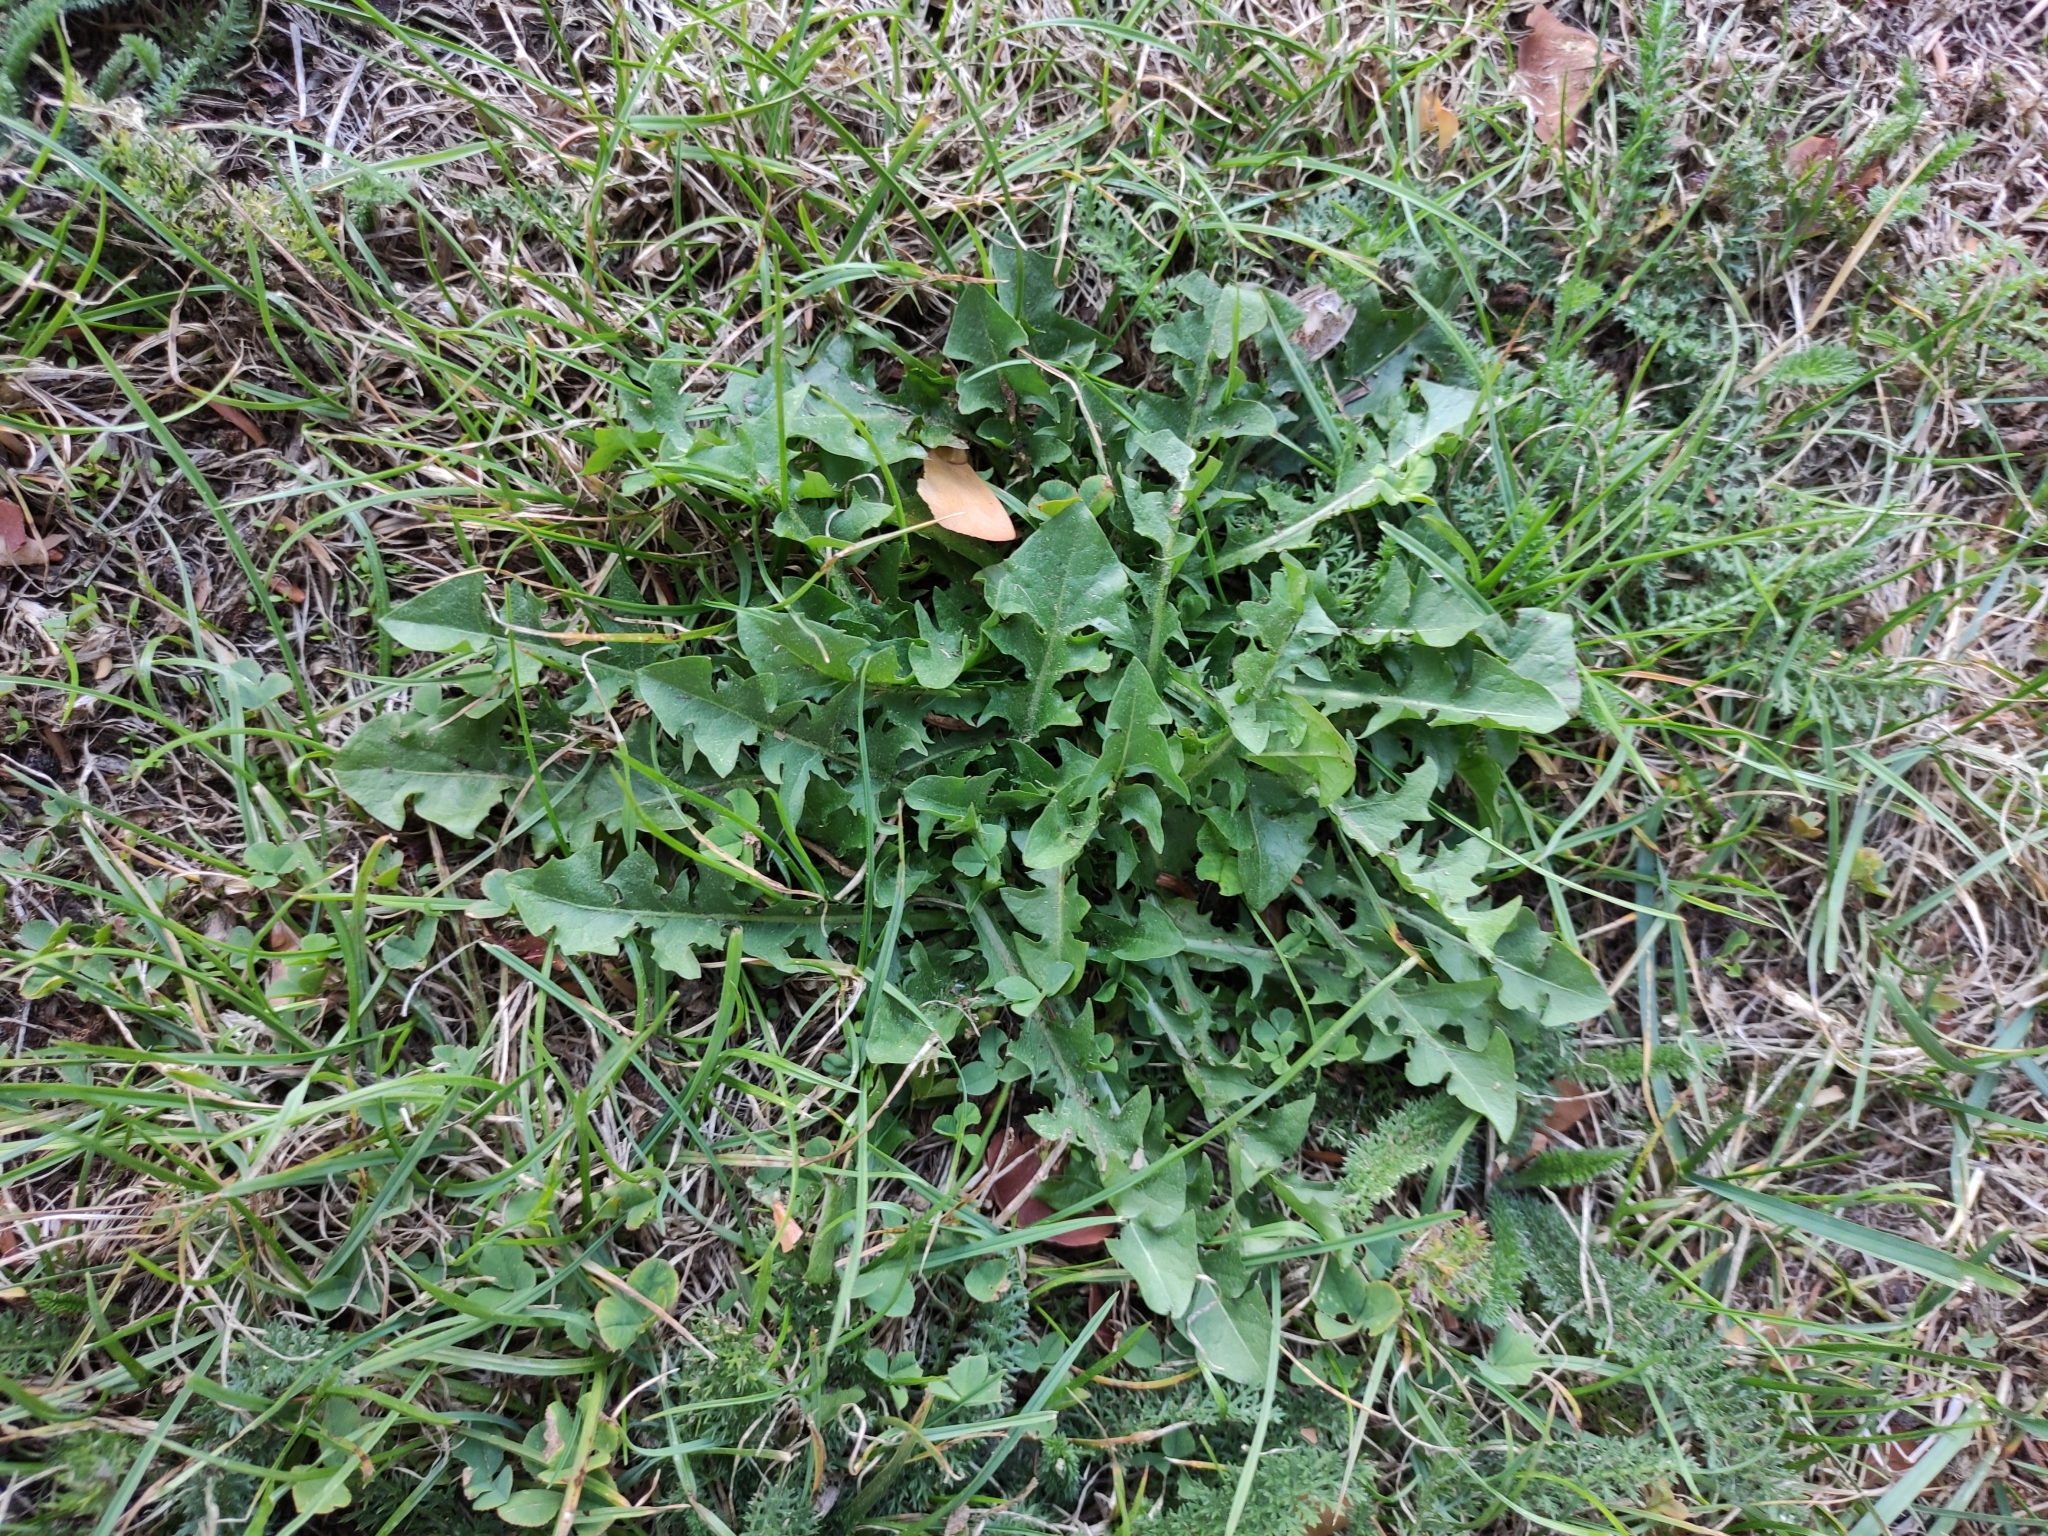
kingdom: Plantae
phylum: Tracheophyta
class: Magnoliopsida
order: Asterales
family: Asteraceae
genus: Taraxacum
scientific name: Taraxacum officinale
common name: Common dandelion
